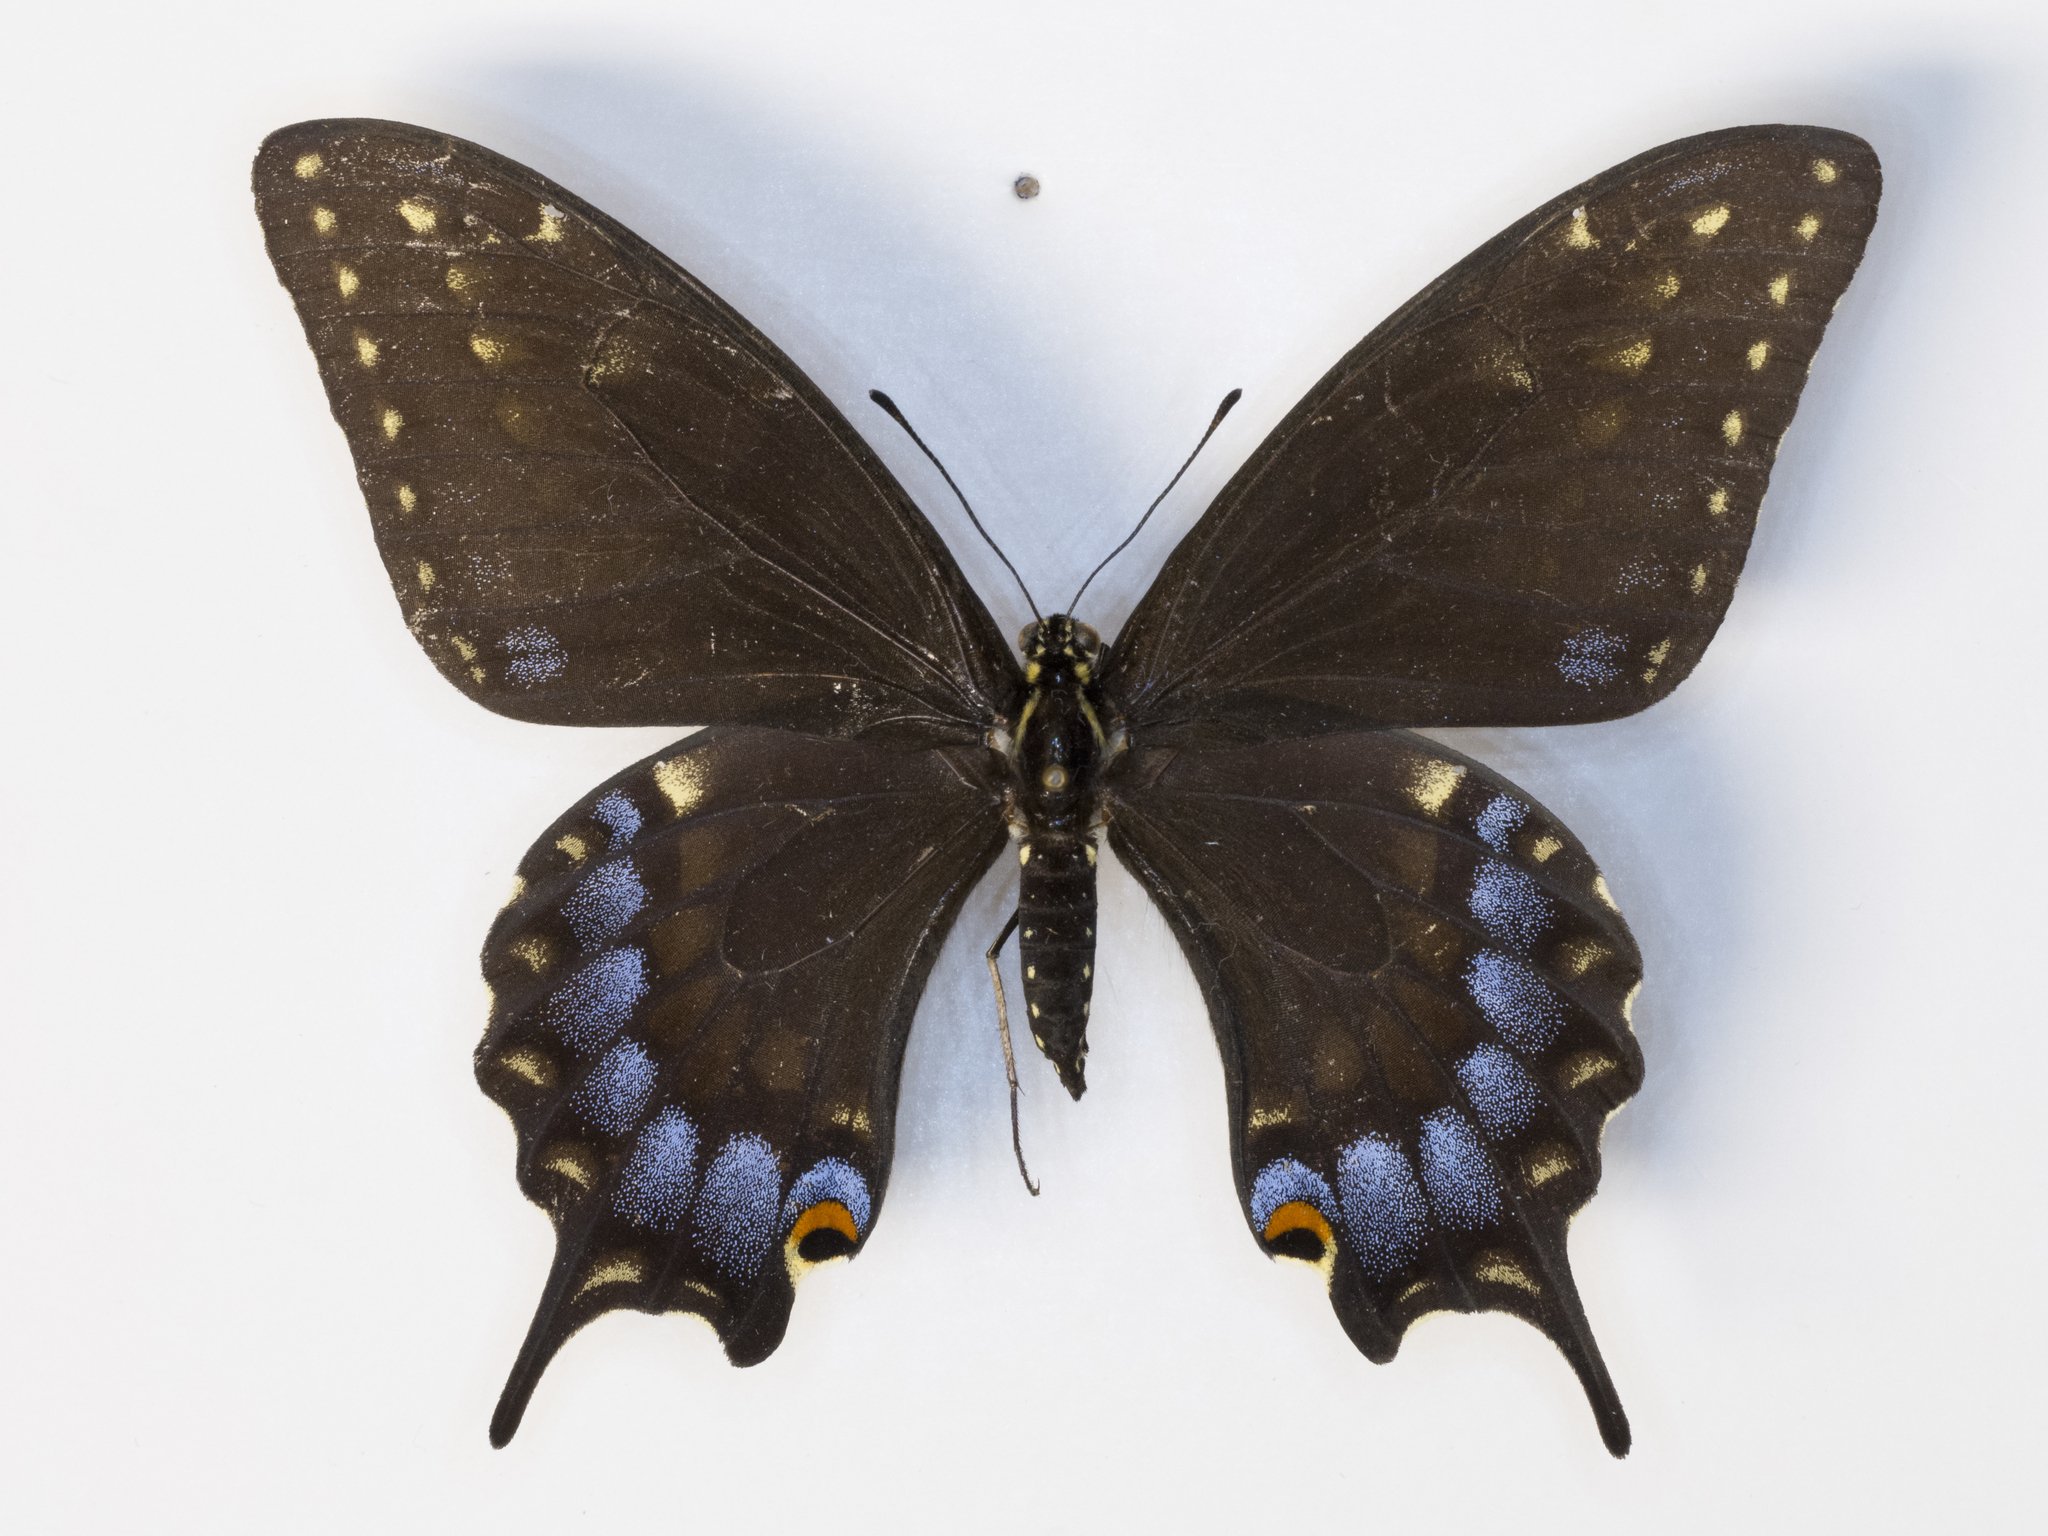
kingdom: Animalia
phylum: Arthropoda
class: Insecta
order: Lepidoptera
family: Papilionidae
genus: Papilio
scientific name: Papilio
